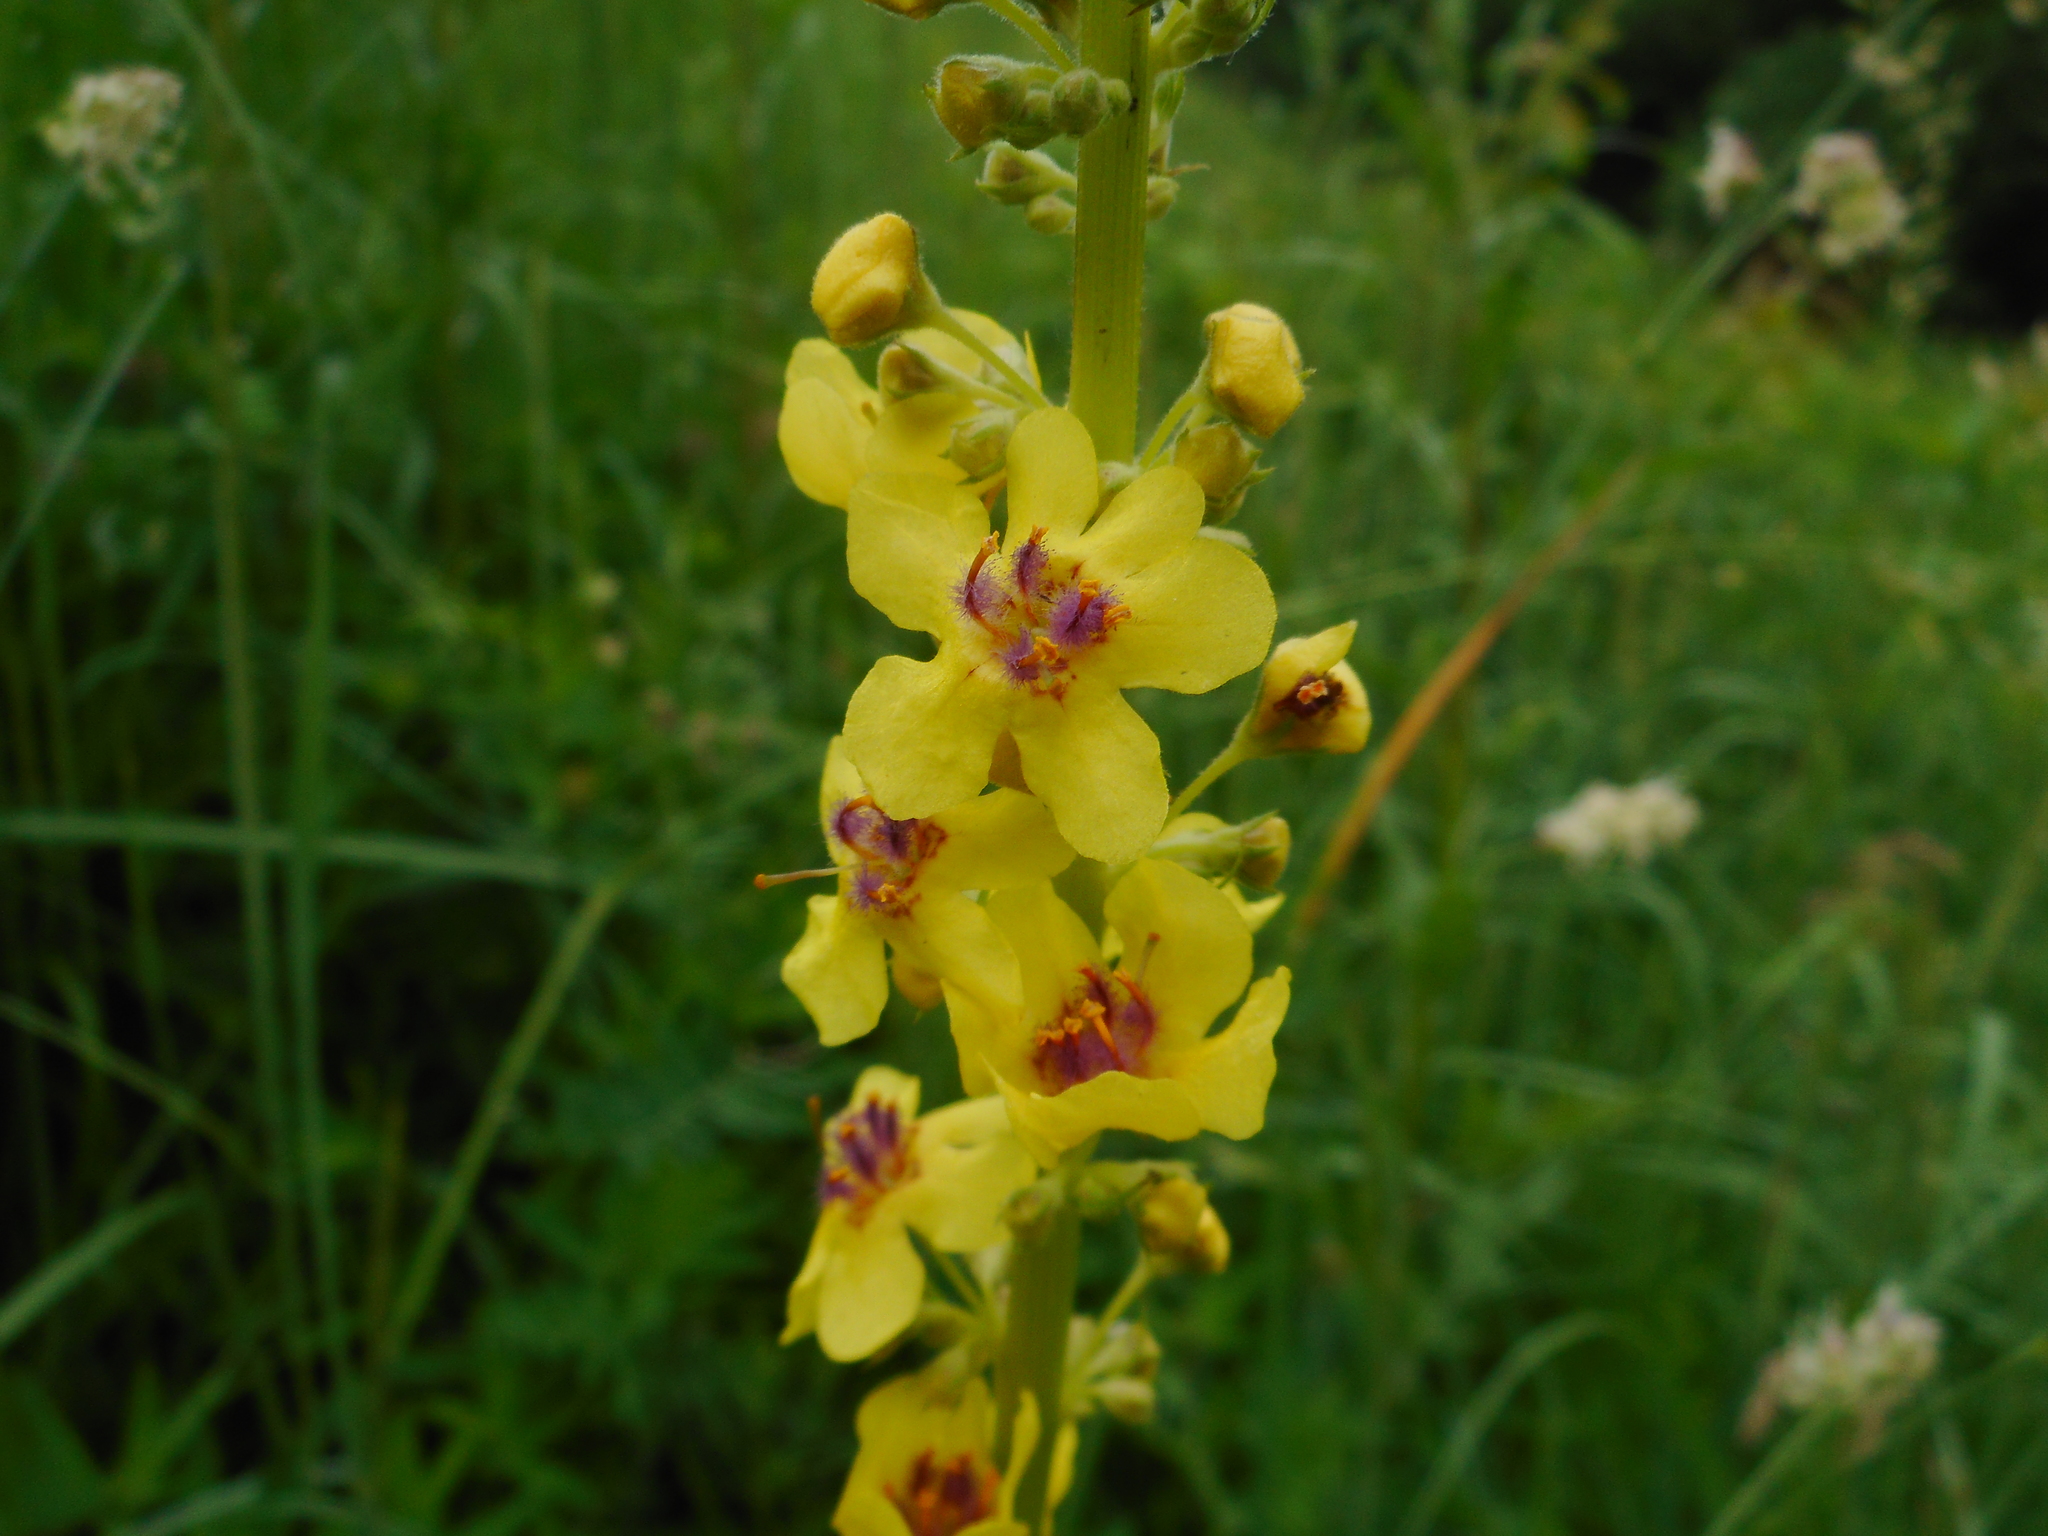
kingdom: Plantae
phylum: Tracheophyta
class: Magnoliopsida
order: Lamiales
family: Scrophulariaceae
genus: Verbascum
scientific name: Verbascum nigrum
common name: Dark mullein
